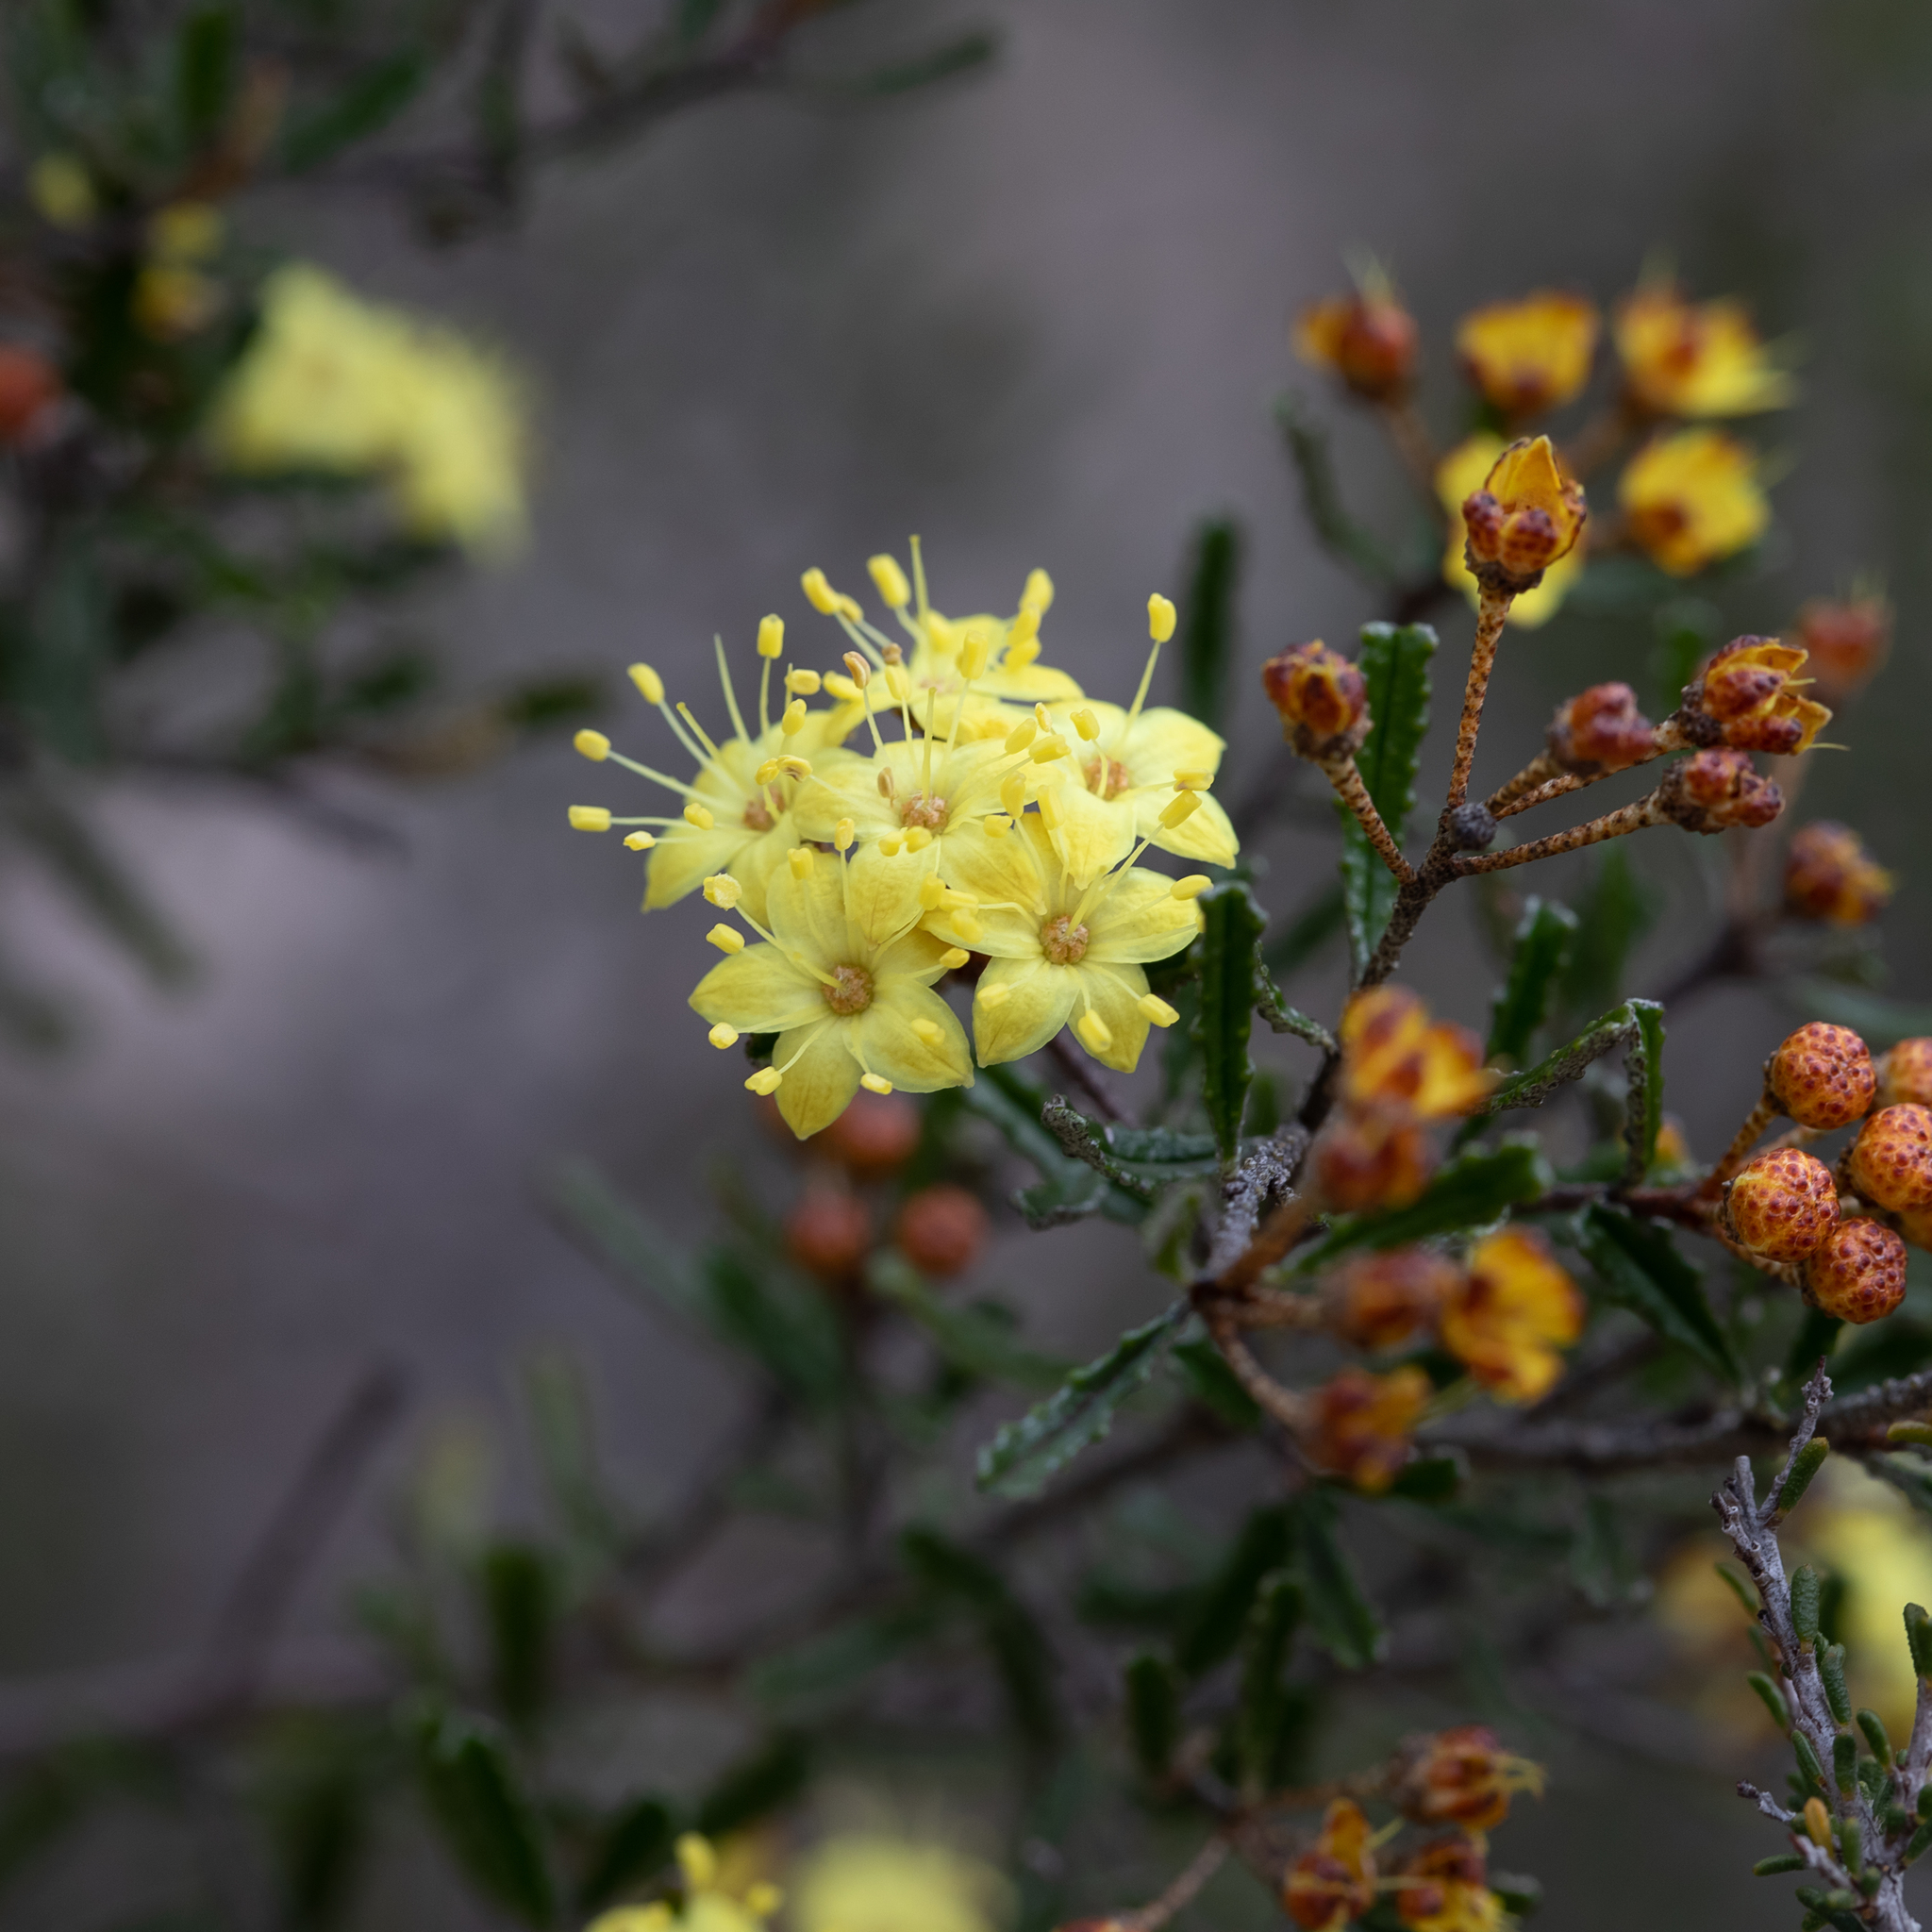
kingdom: Plantae
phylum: Tracheophyta
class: Magnoliopsida
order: Sapindales
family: Rutaceae
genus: Phebalium
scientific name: Phebalium bullatum
